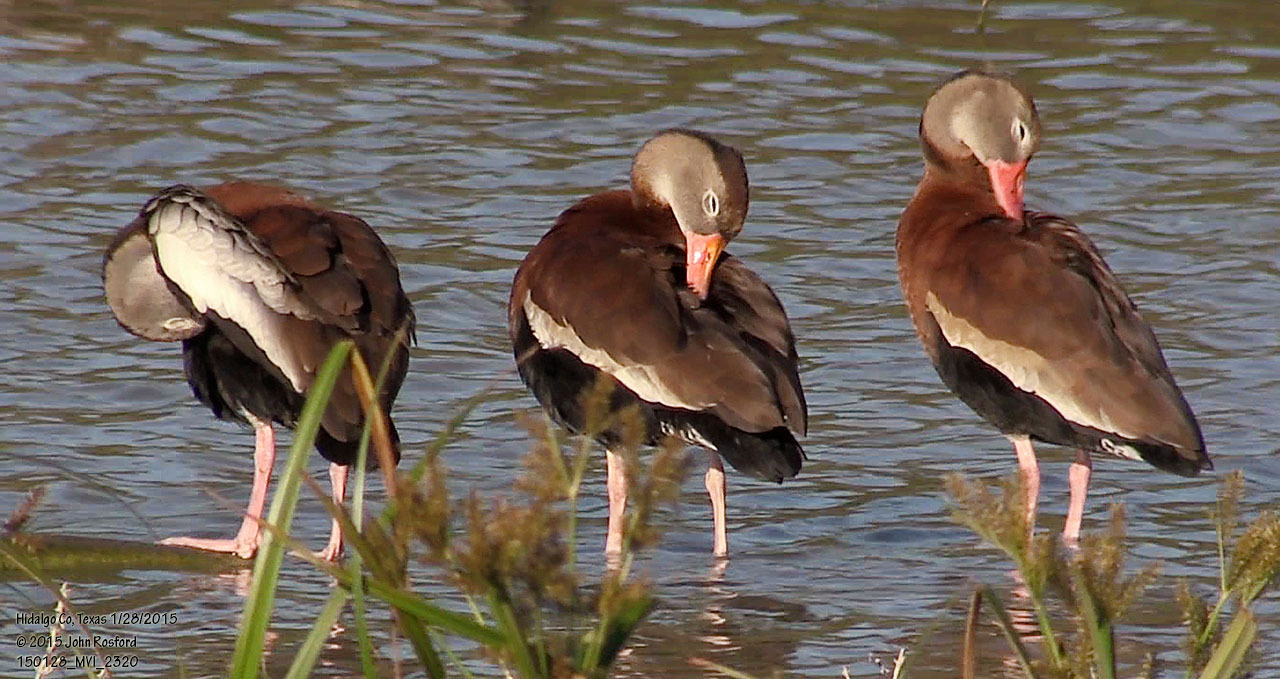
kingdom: Animalia
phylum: Chordata
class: Aves
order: Anseriformes
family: Anatidae
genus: Dendrocygna
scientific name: Dendrocygna autumnalis
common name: Black-bellied whistling duck
